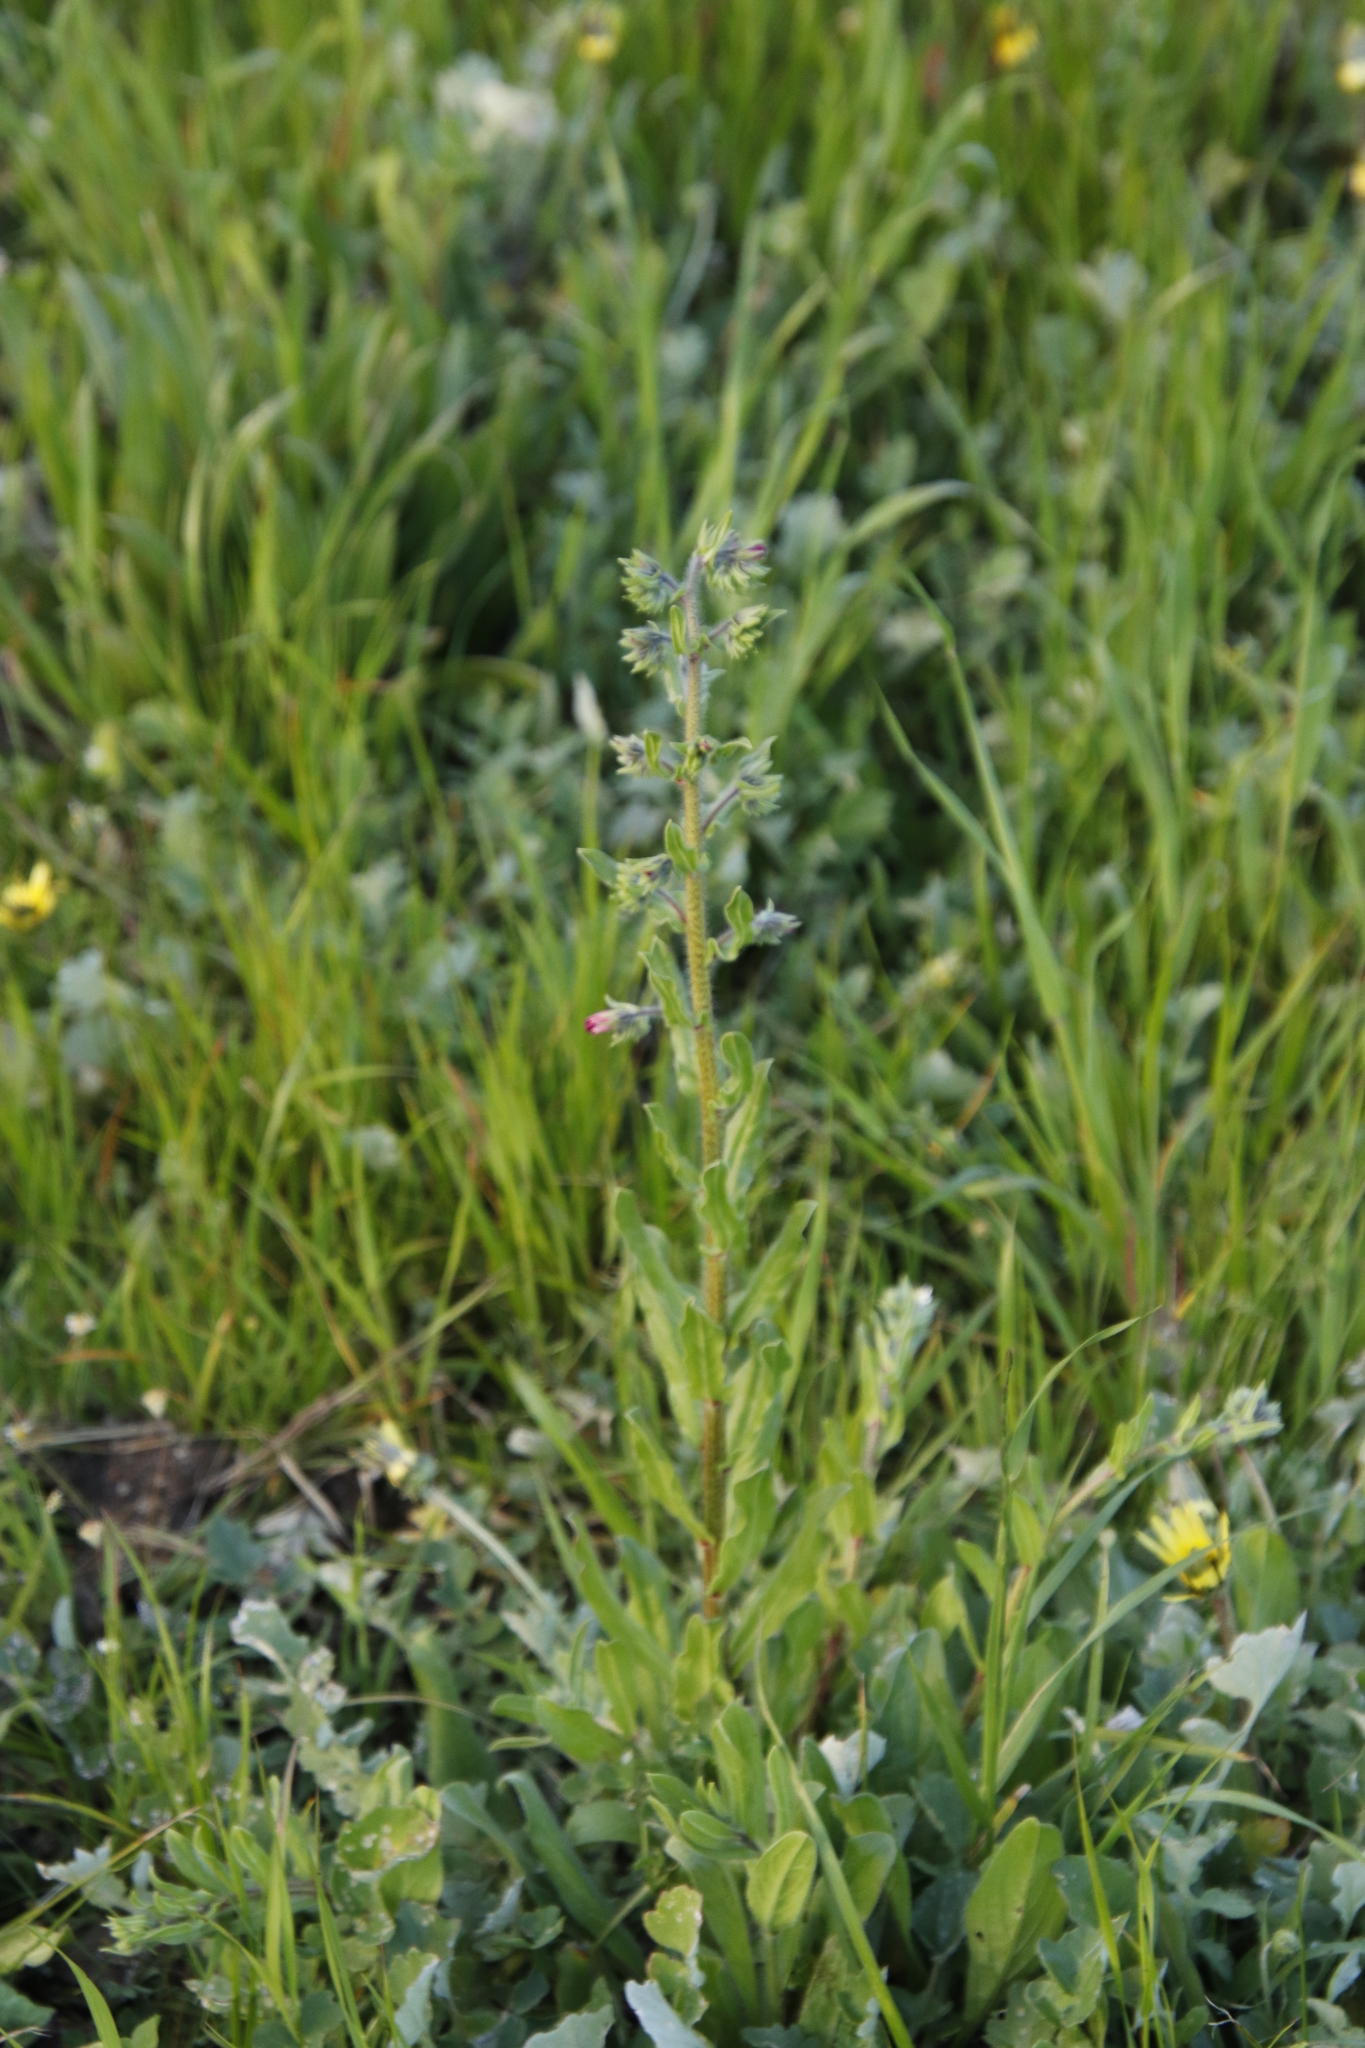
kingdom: Plantae
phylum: Tracheophyta
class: Magnoliopsida
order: Boraginales
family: Boraginaceae
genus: Echium
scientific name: Echium plantagineum
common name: Purple viper's-bugloss
